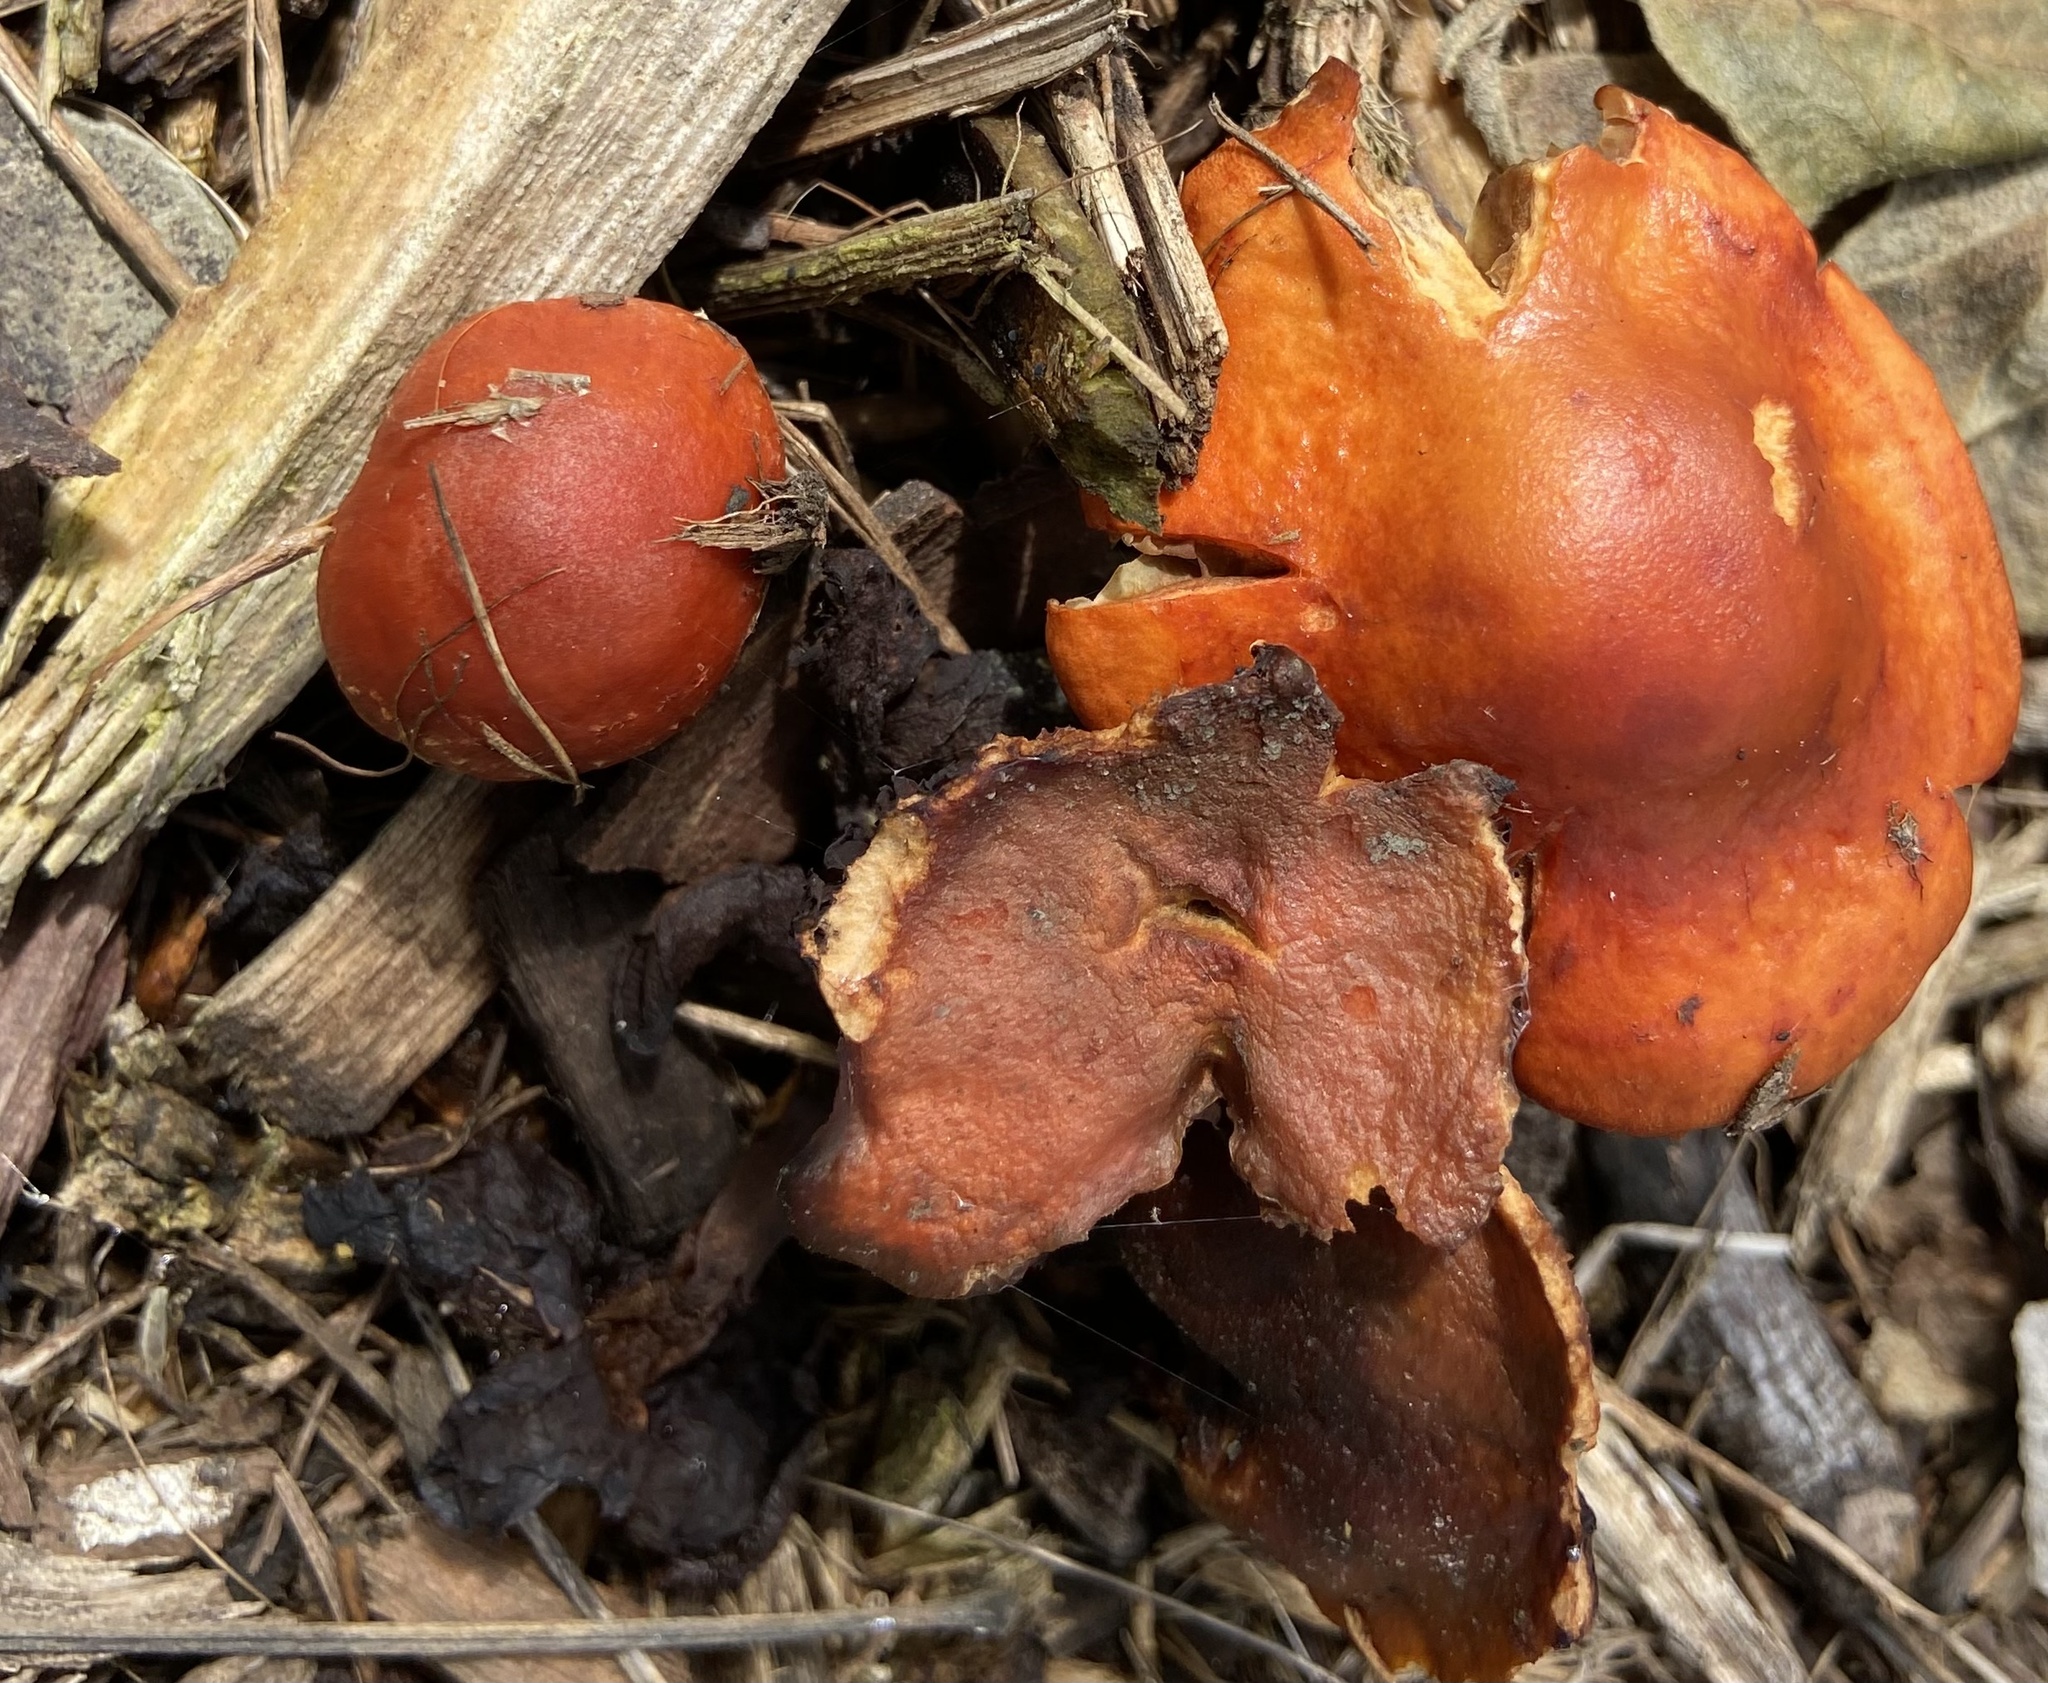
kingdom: Fungi
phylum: Basidiomycota
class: Agaricomycetes
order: Agaricales
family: Strophariaceae
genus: Leratiomyces
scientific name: Leratiomyces ceres
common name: Redlead roundhead
